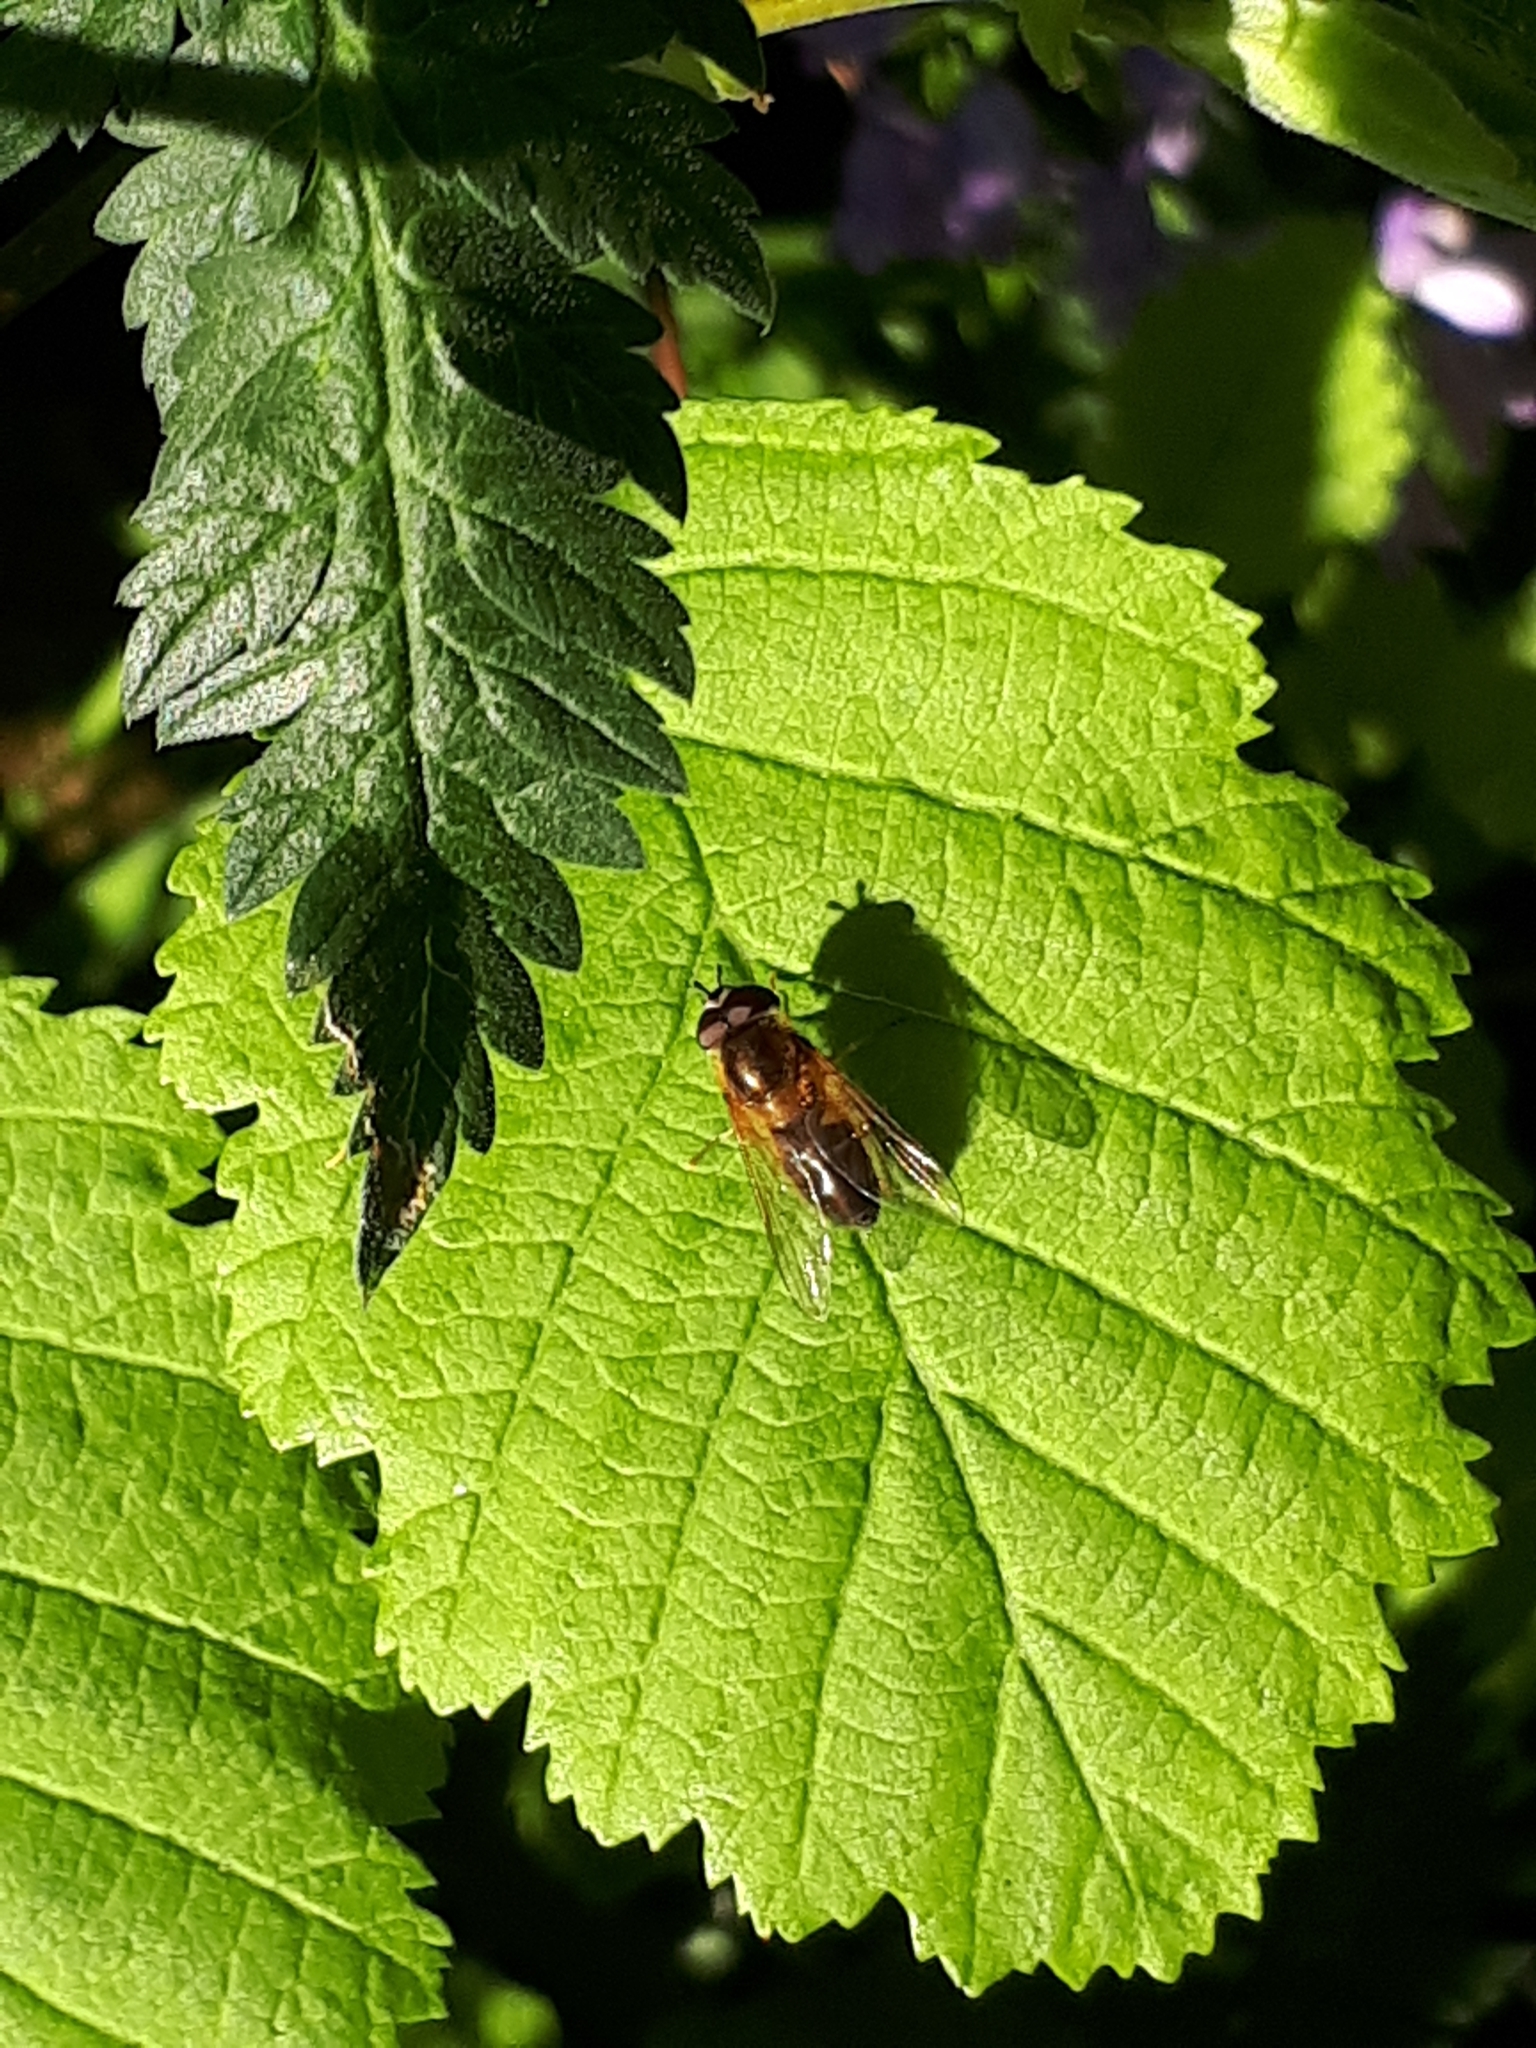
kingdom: Animalia
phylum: Arthropoda
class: Insecta
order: Diptera
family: Syrphidae
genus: Epistrophe
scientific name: Epistrophe eligans
